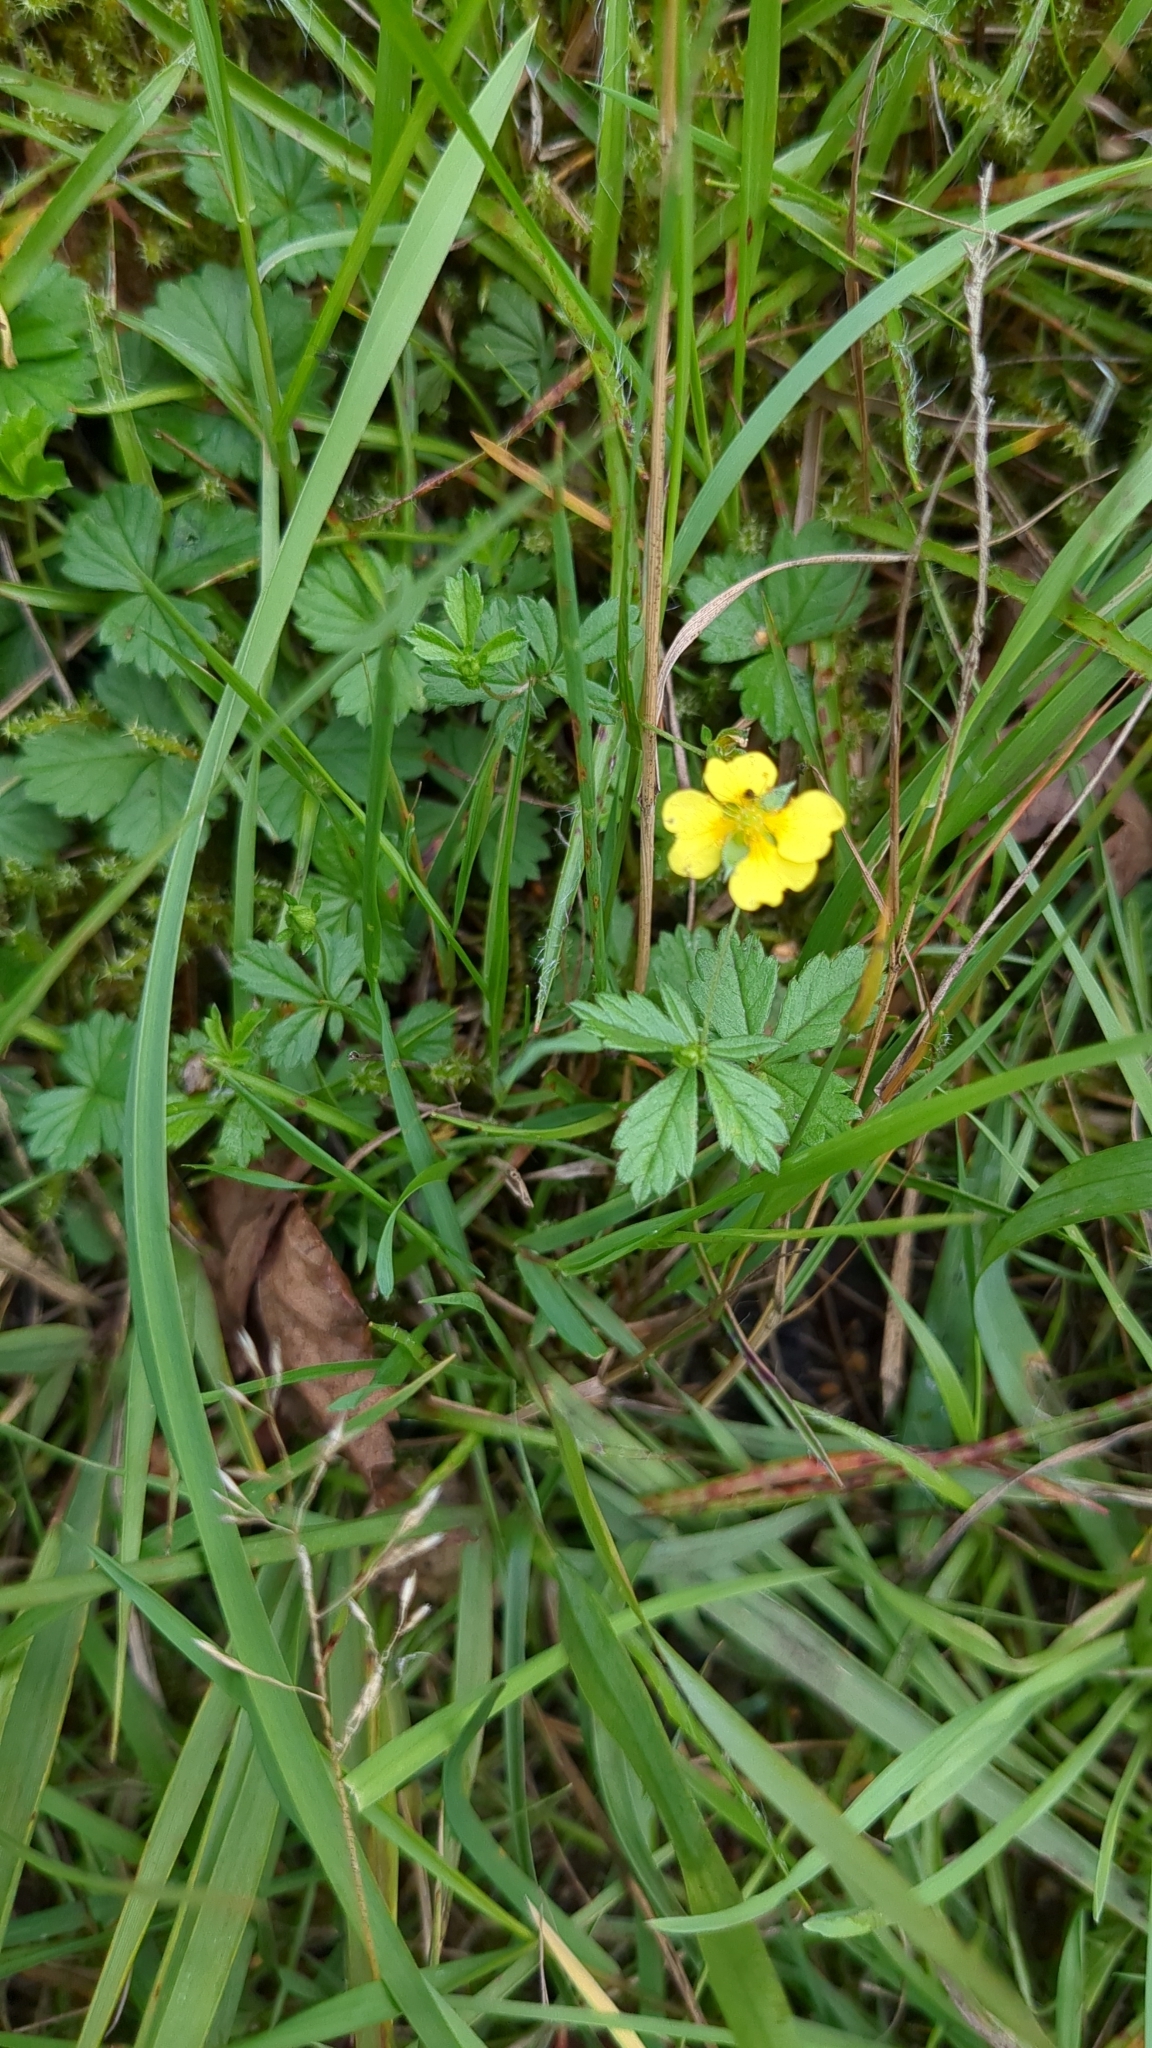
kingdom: Plantae
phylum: Tracheophyta
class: Magnoliopsida
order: Rosales
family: Rosaceae
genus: Potentilla
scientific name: Potentilla erecta
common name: Tormentil
